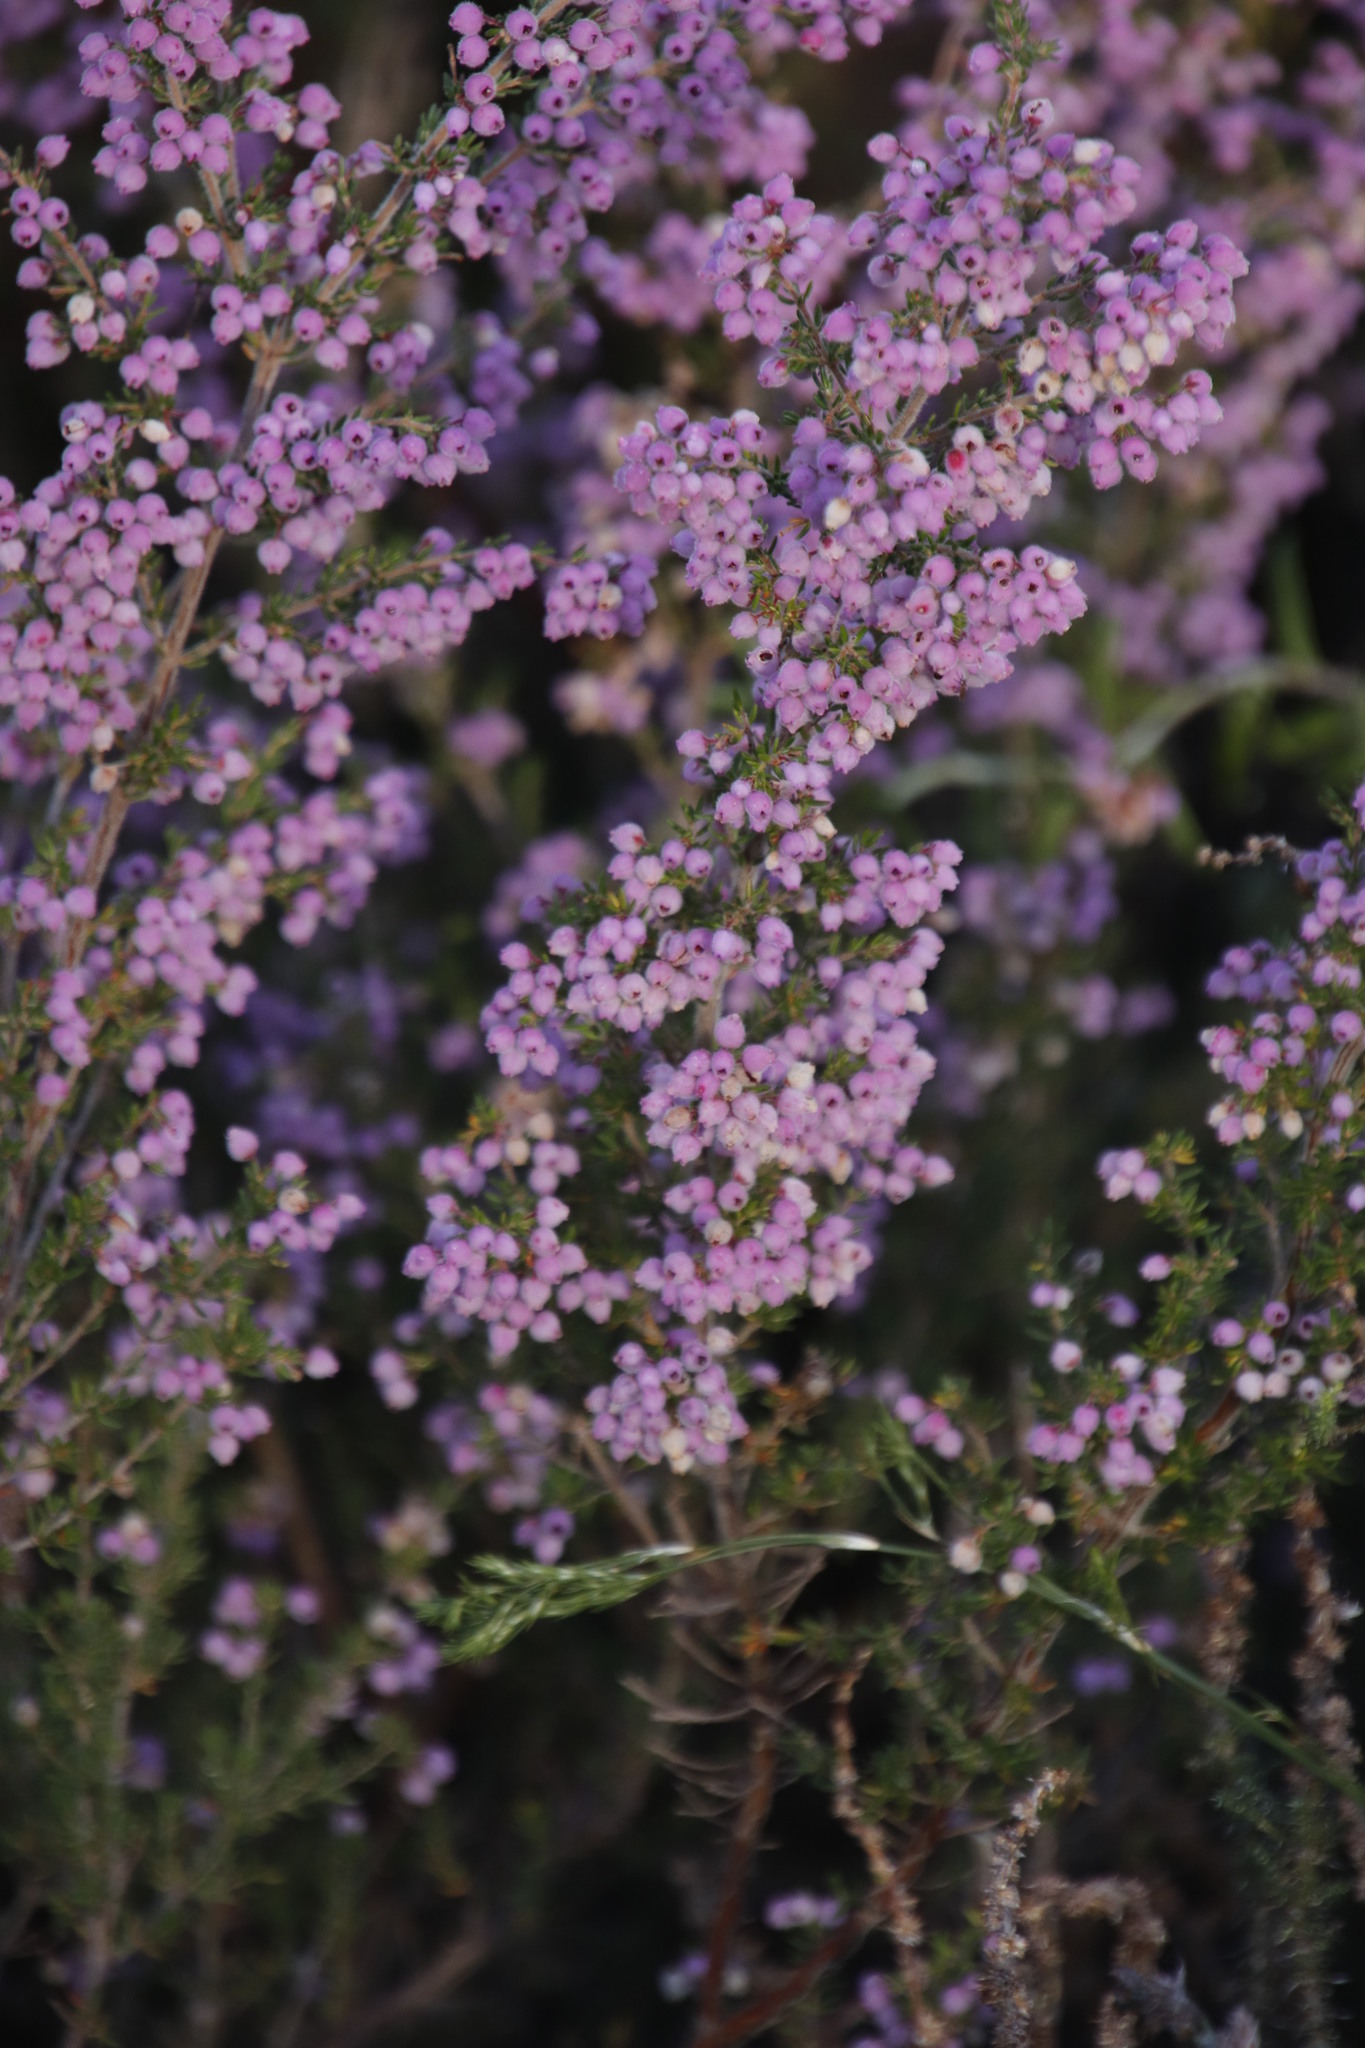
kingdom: Plantae
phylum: Tracheophyta
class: Magnoliopsida
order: Ericales
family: Ericaceae
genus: Erica
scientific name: Erica hirtiflora
